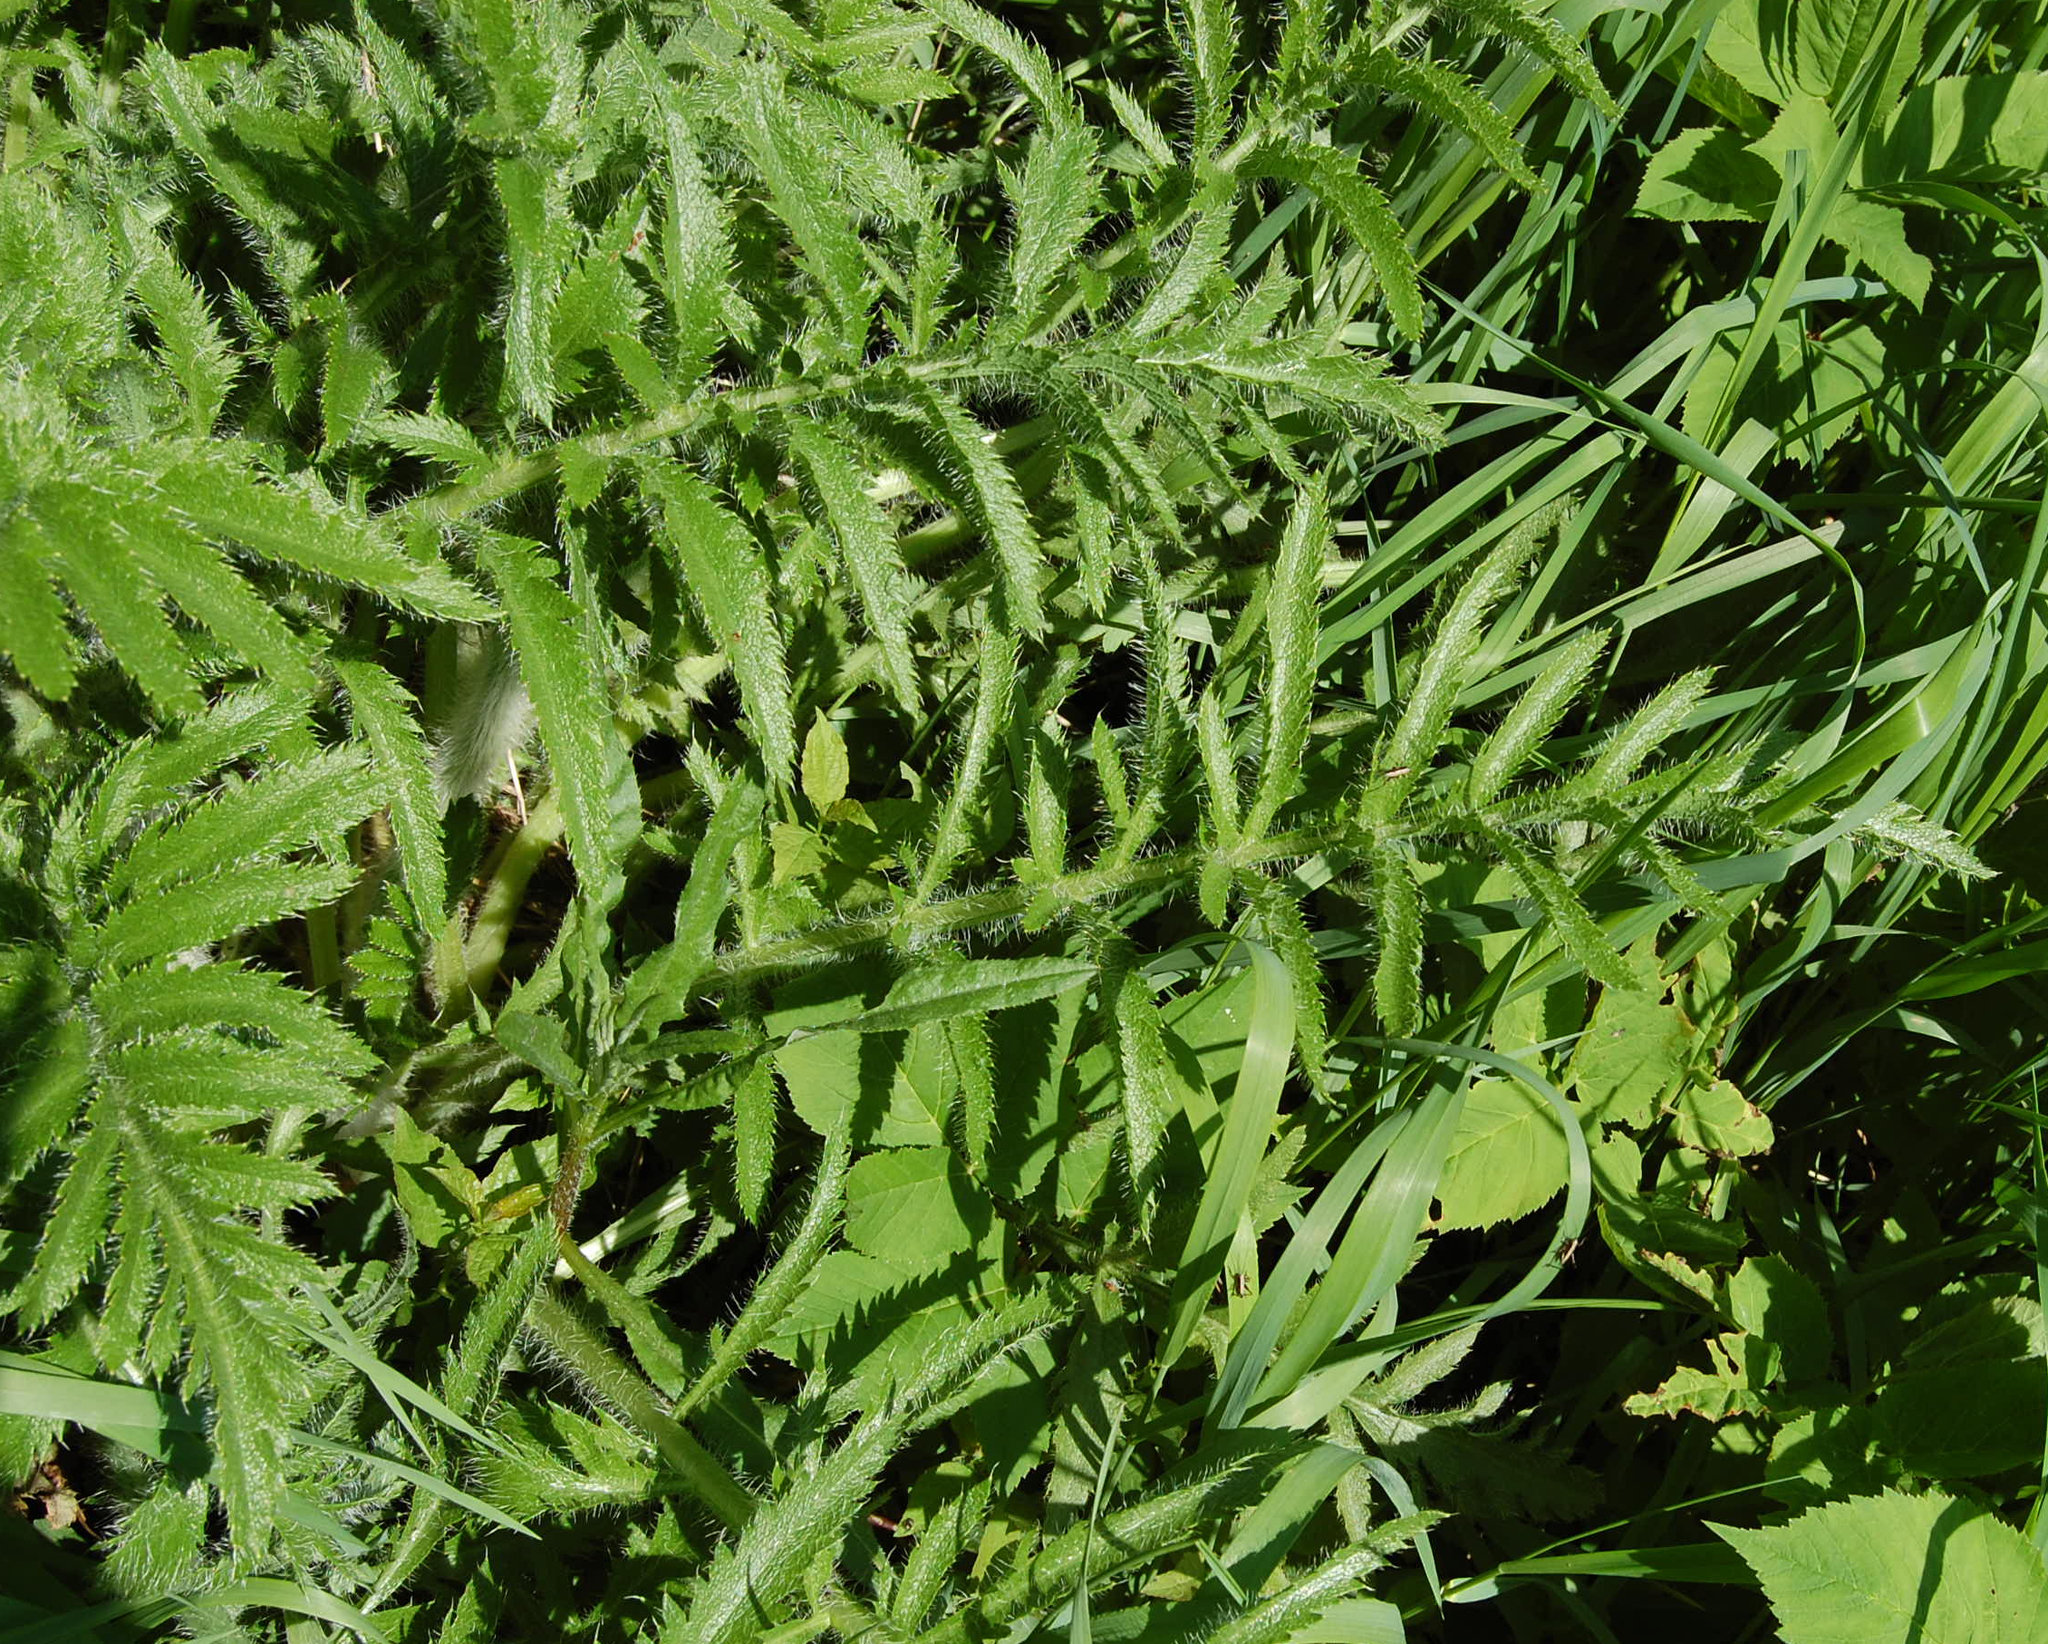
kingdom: Plantae
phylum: Tracheophyta
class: Magnoliopsida
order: Ranunculales
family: Papaveraceae
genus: Papaver
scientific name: Papaver orientale
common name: Oriental poppy
